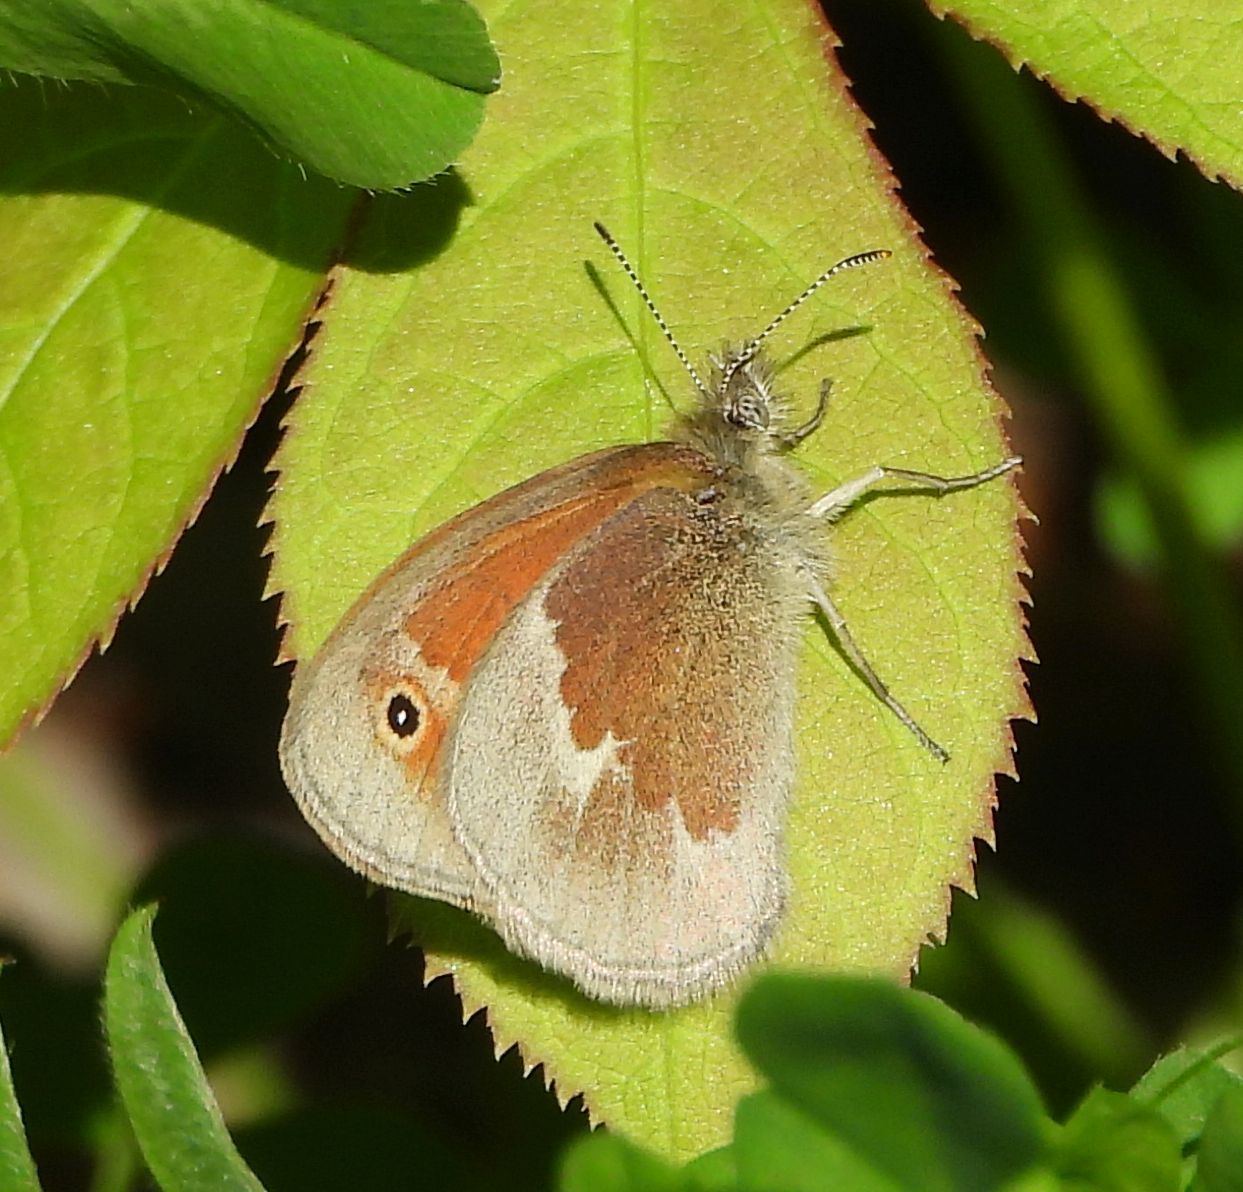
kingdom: Animalia
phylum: Arthropoda
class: Insecta
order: Lepidoptera
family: Nymphalidae
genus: Coenonympha
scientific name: Coenonympha california
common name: Common ringlet
